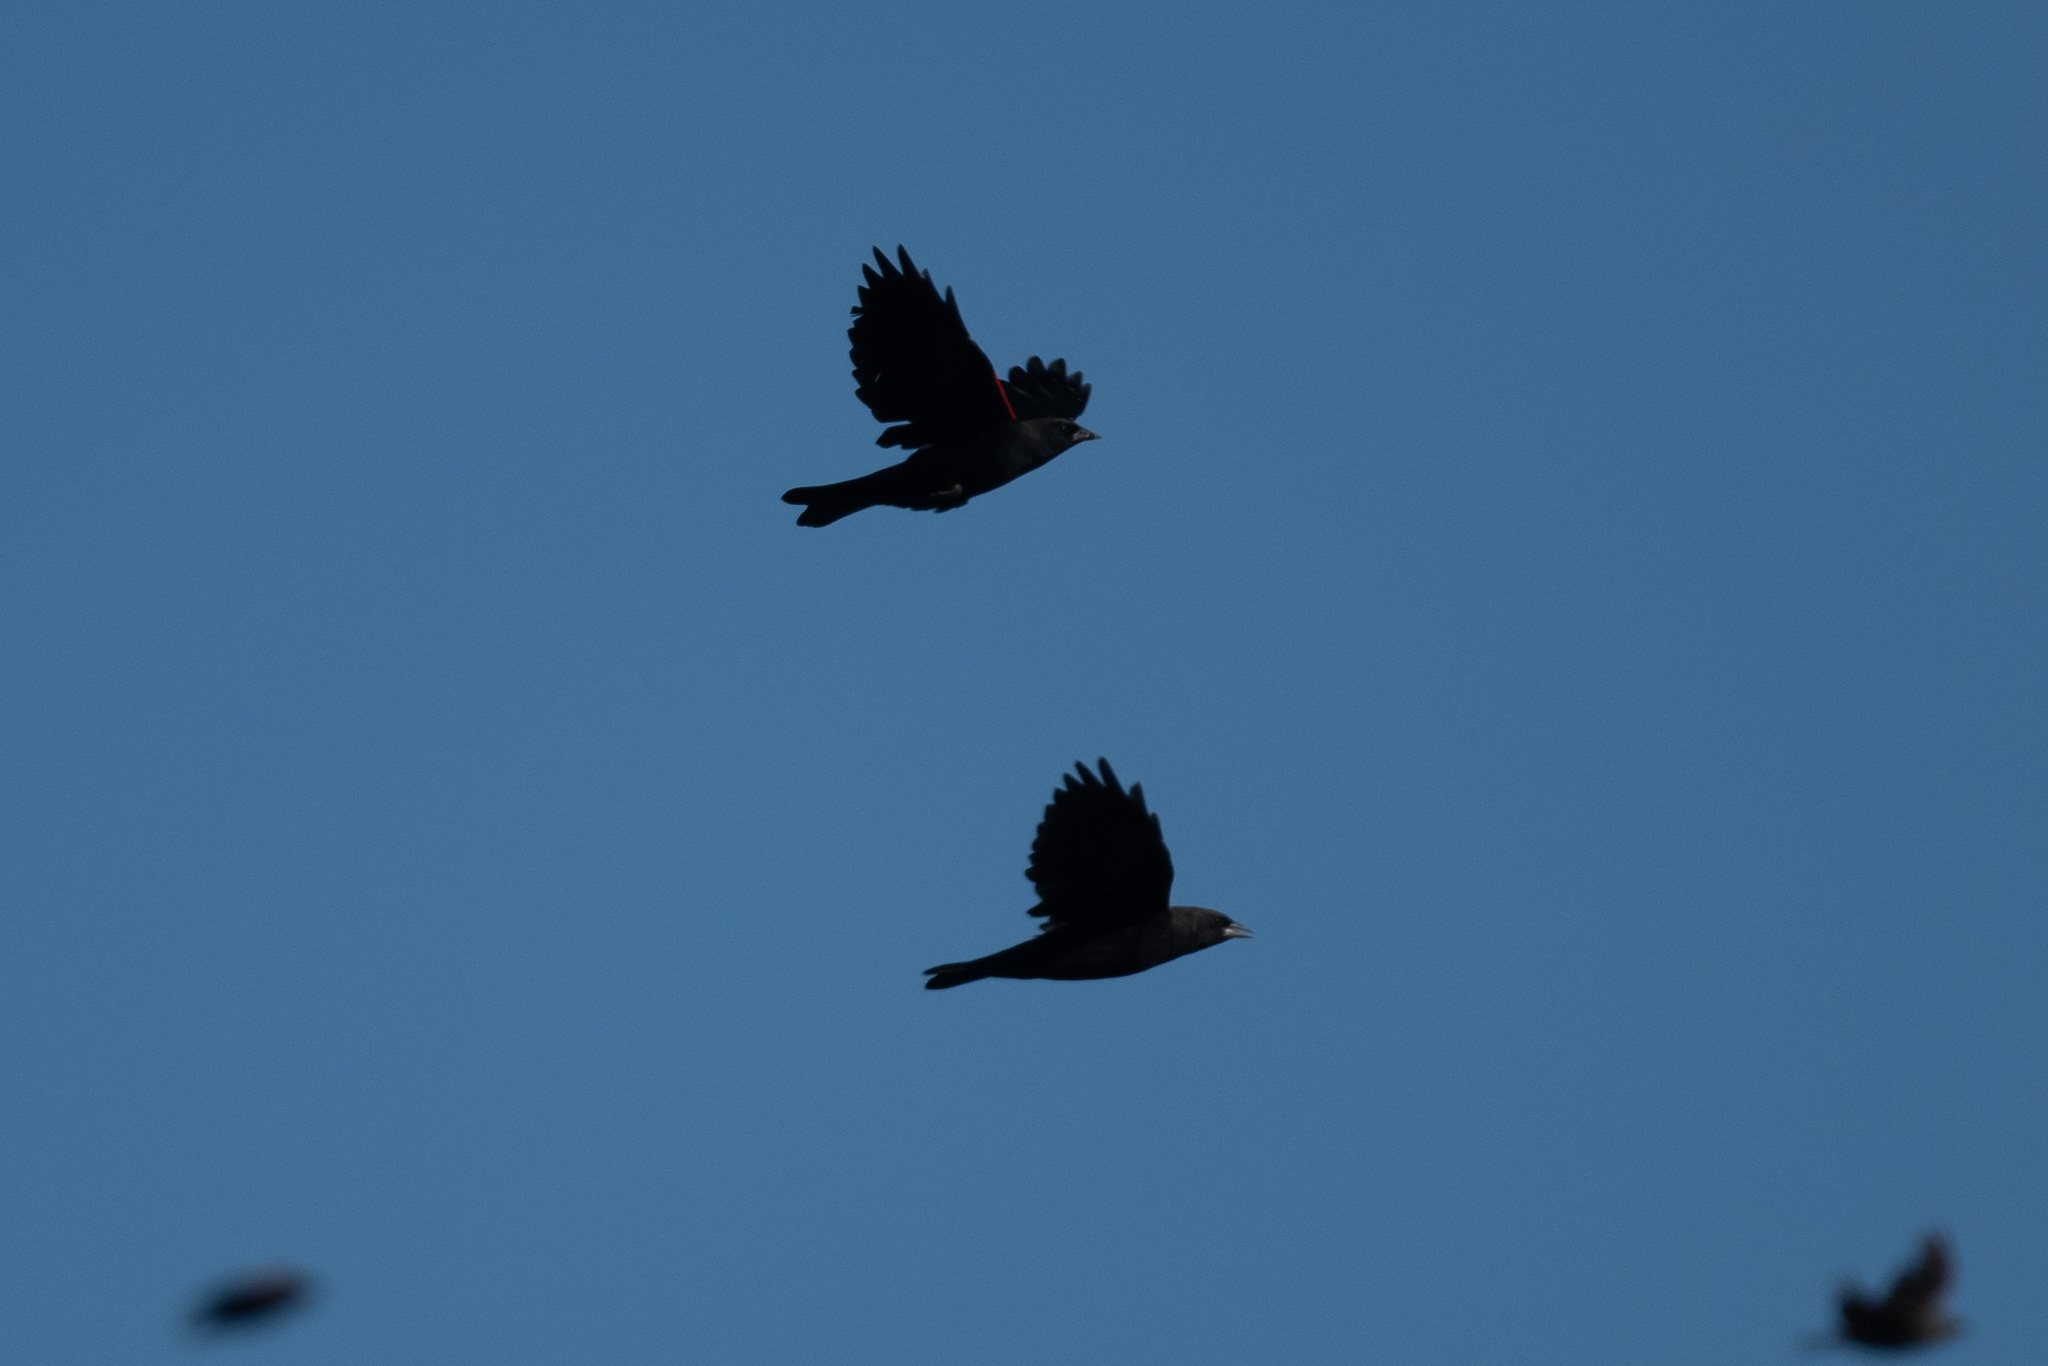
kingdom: Animalia
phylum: Chordata
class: Aves
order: Passeriformes
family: Icteridae
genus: Agelaius
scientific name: Agelaius phoeniceus
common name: Red-winged blackbird
